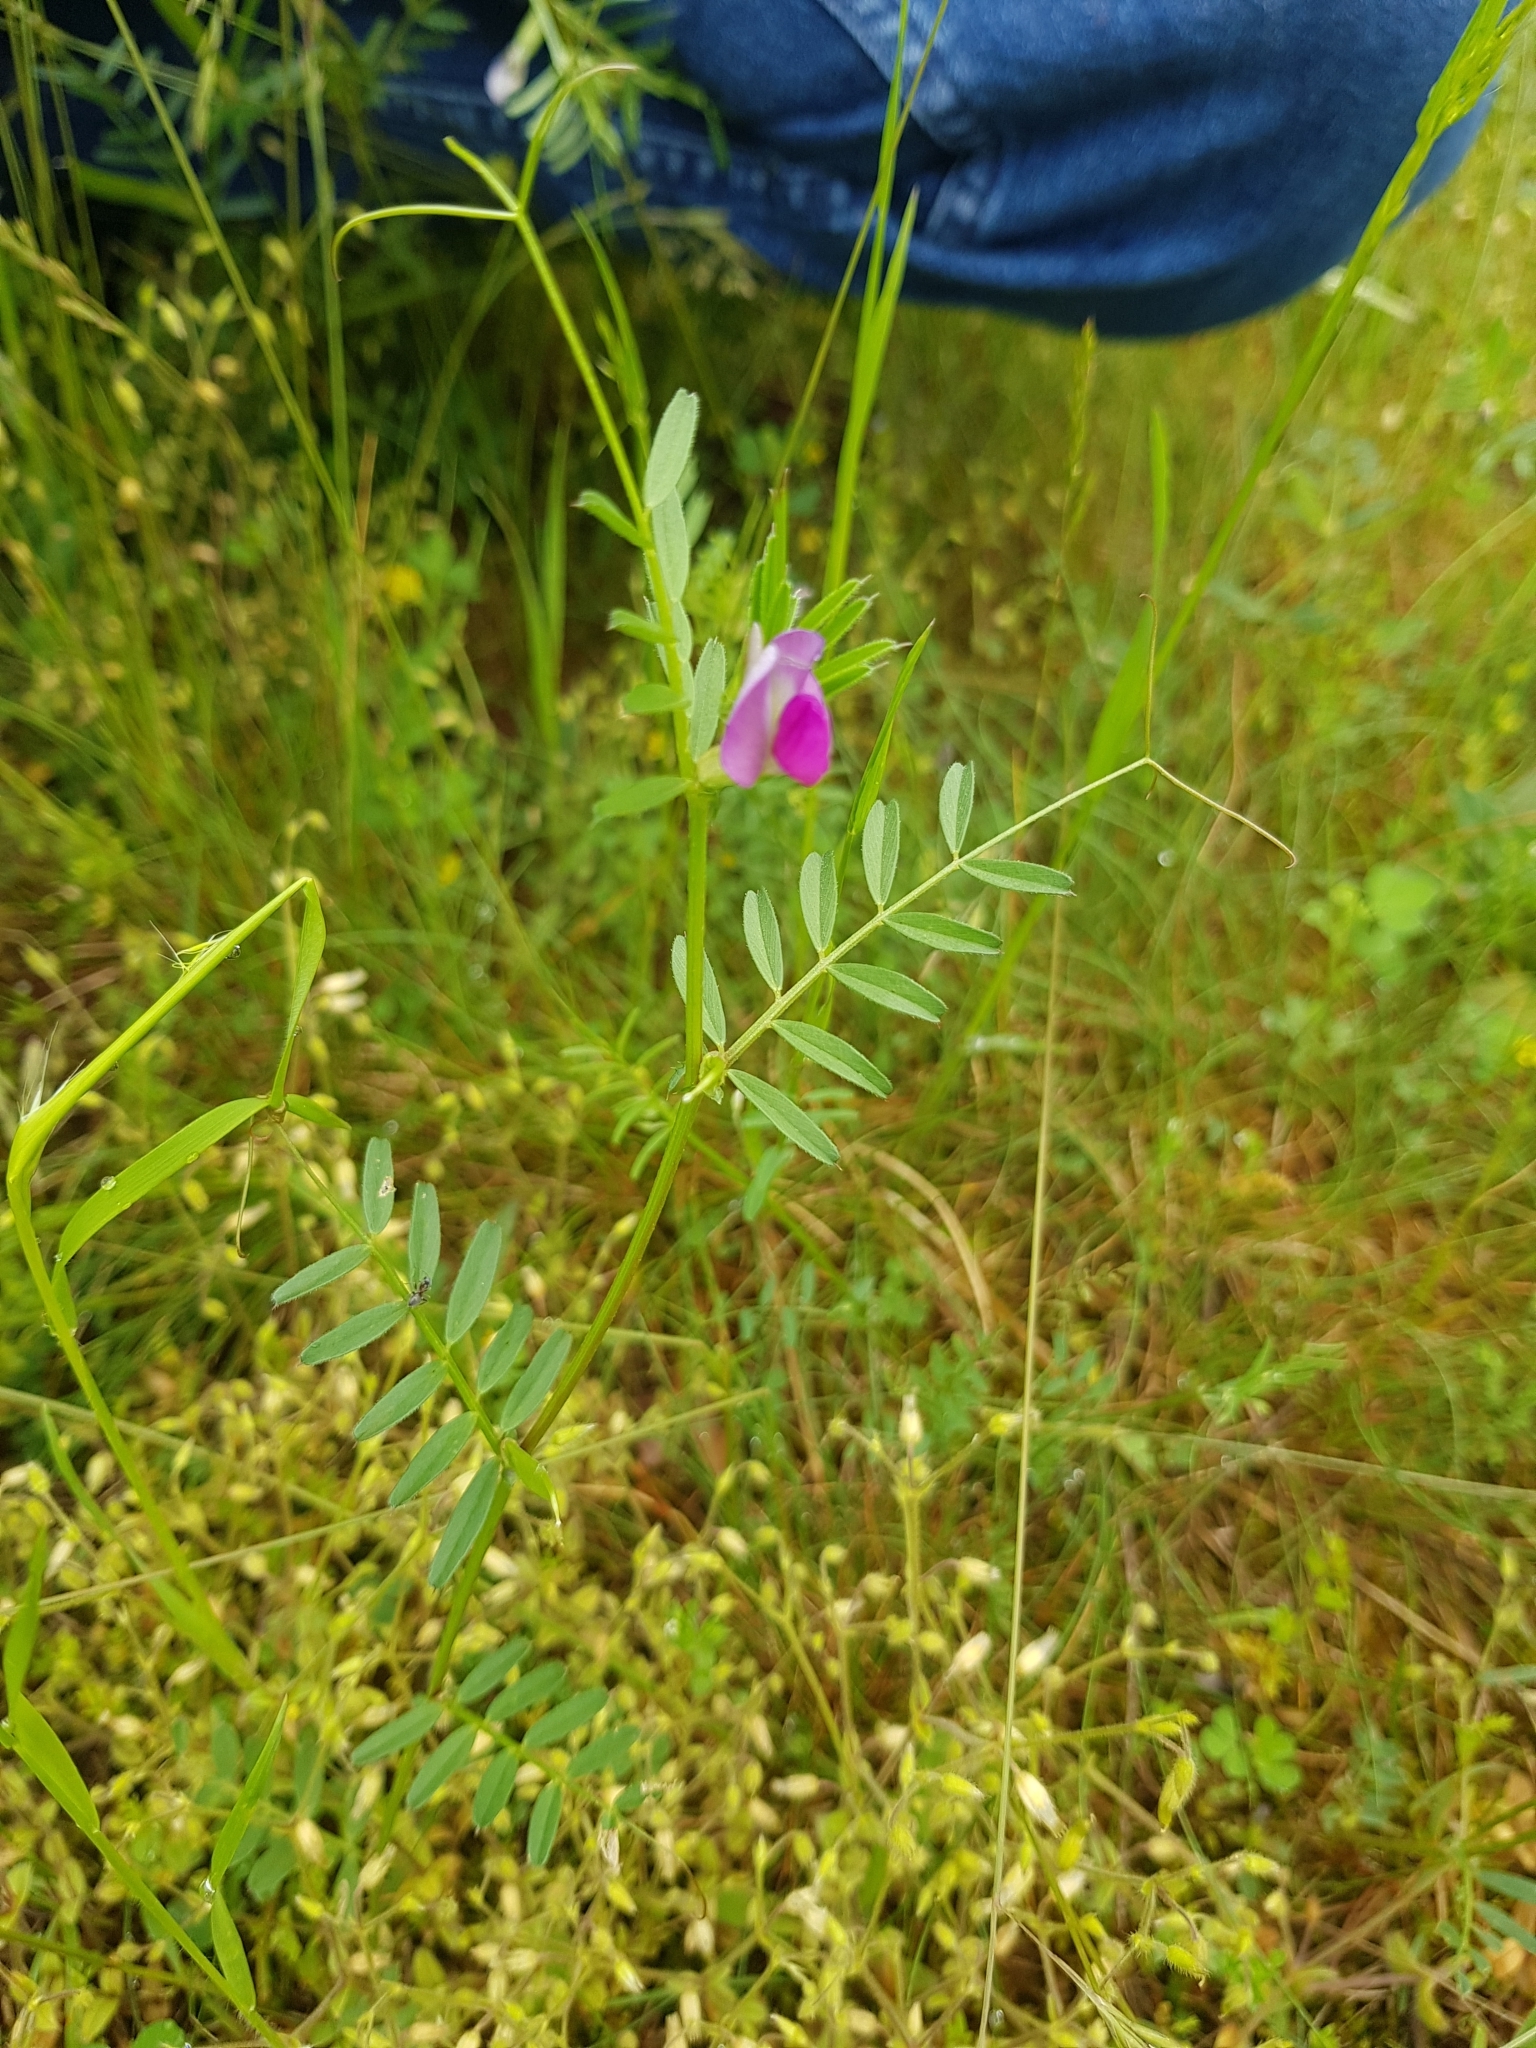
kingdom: Plantae
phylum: Tracheophyta
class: Magnoliopsida
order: Fabales
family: Fabaceae
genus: Vicia
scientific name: Vicia sativa
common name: Garden vetch
